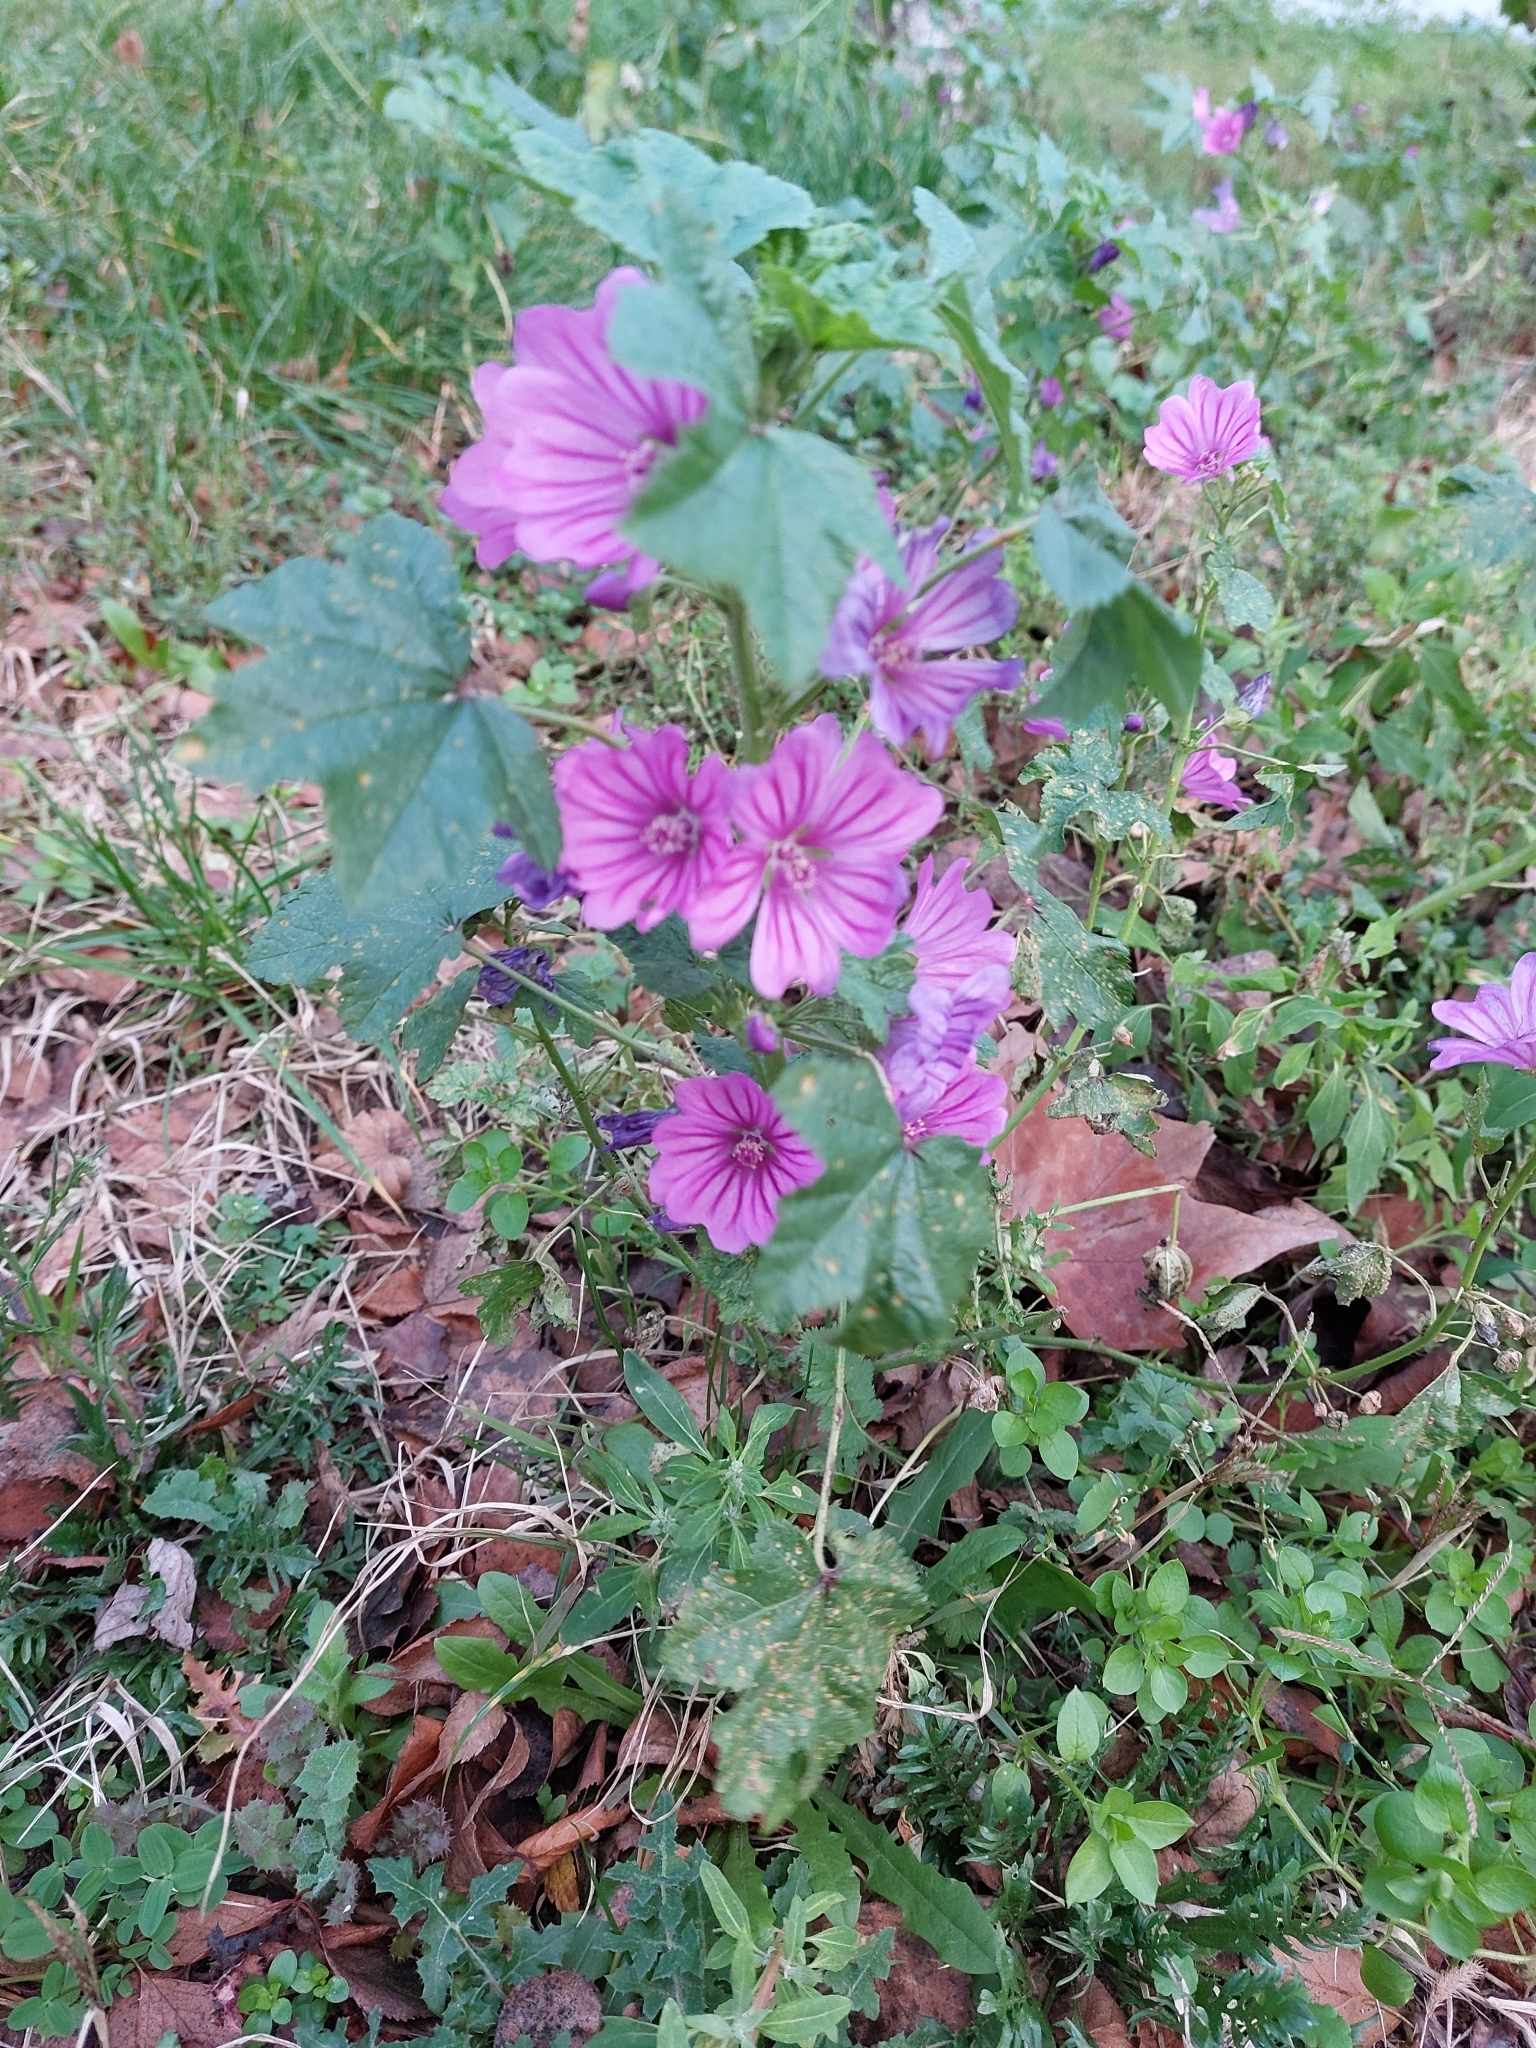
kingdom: Plantae
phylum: Tracheophyta
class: Magnoliopsida
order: Malvales
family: Malvaceae
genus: Malva
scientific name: Malva sylvestris
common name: Common mallow
